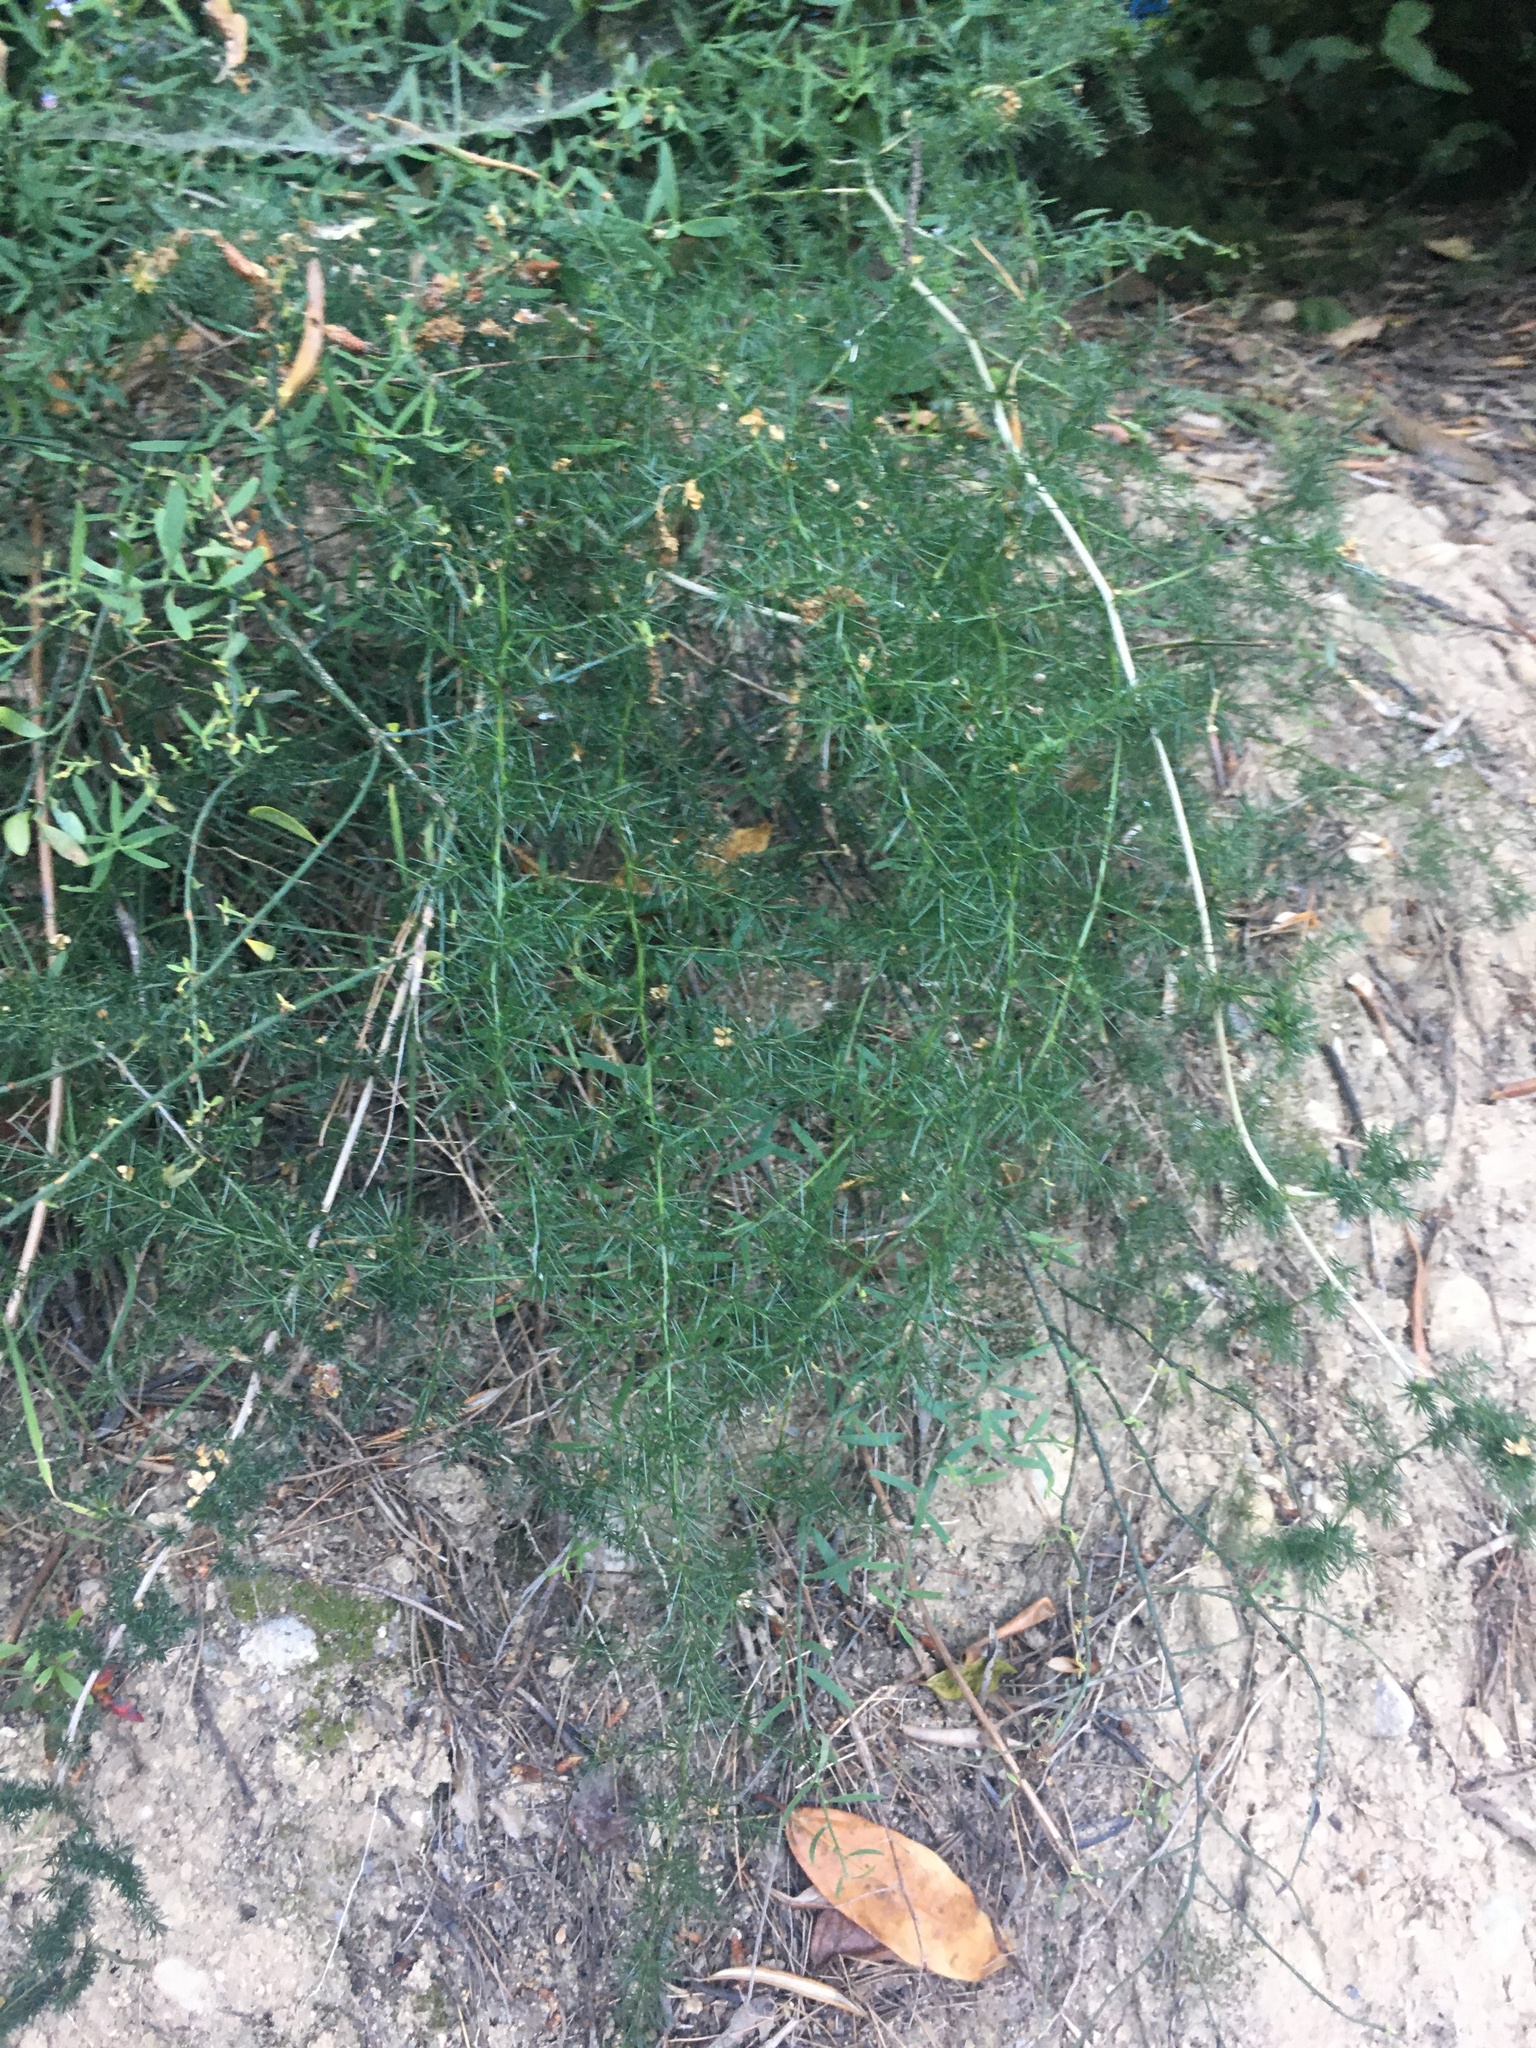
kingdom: Plantae
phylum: Tracheophyta
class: Liliopsida
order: Asparagales
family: Asparagaceae
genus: Asparagus
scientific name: Asparagus acutifolius
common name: Wild asparagus
